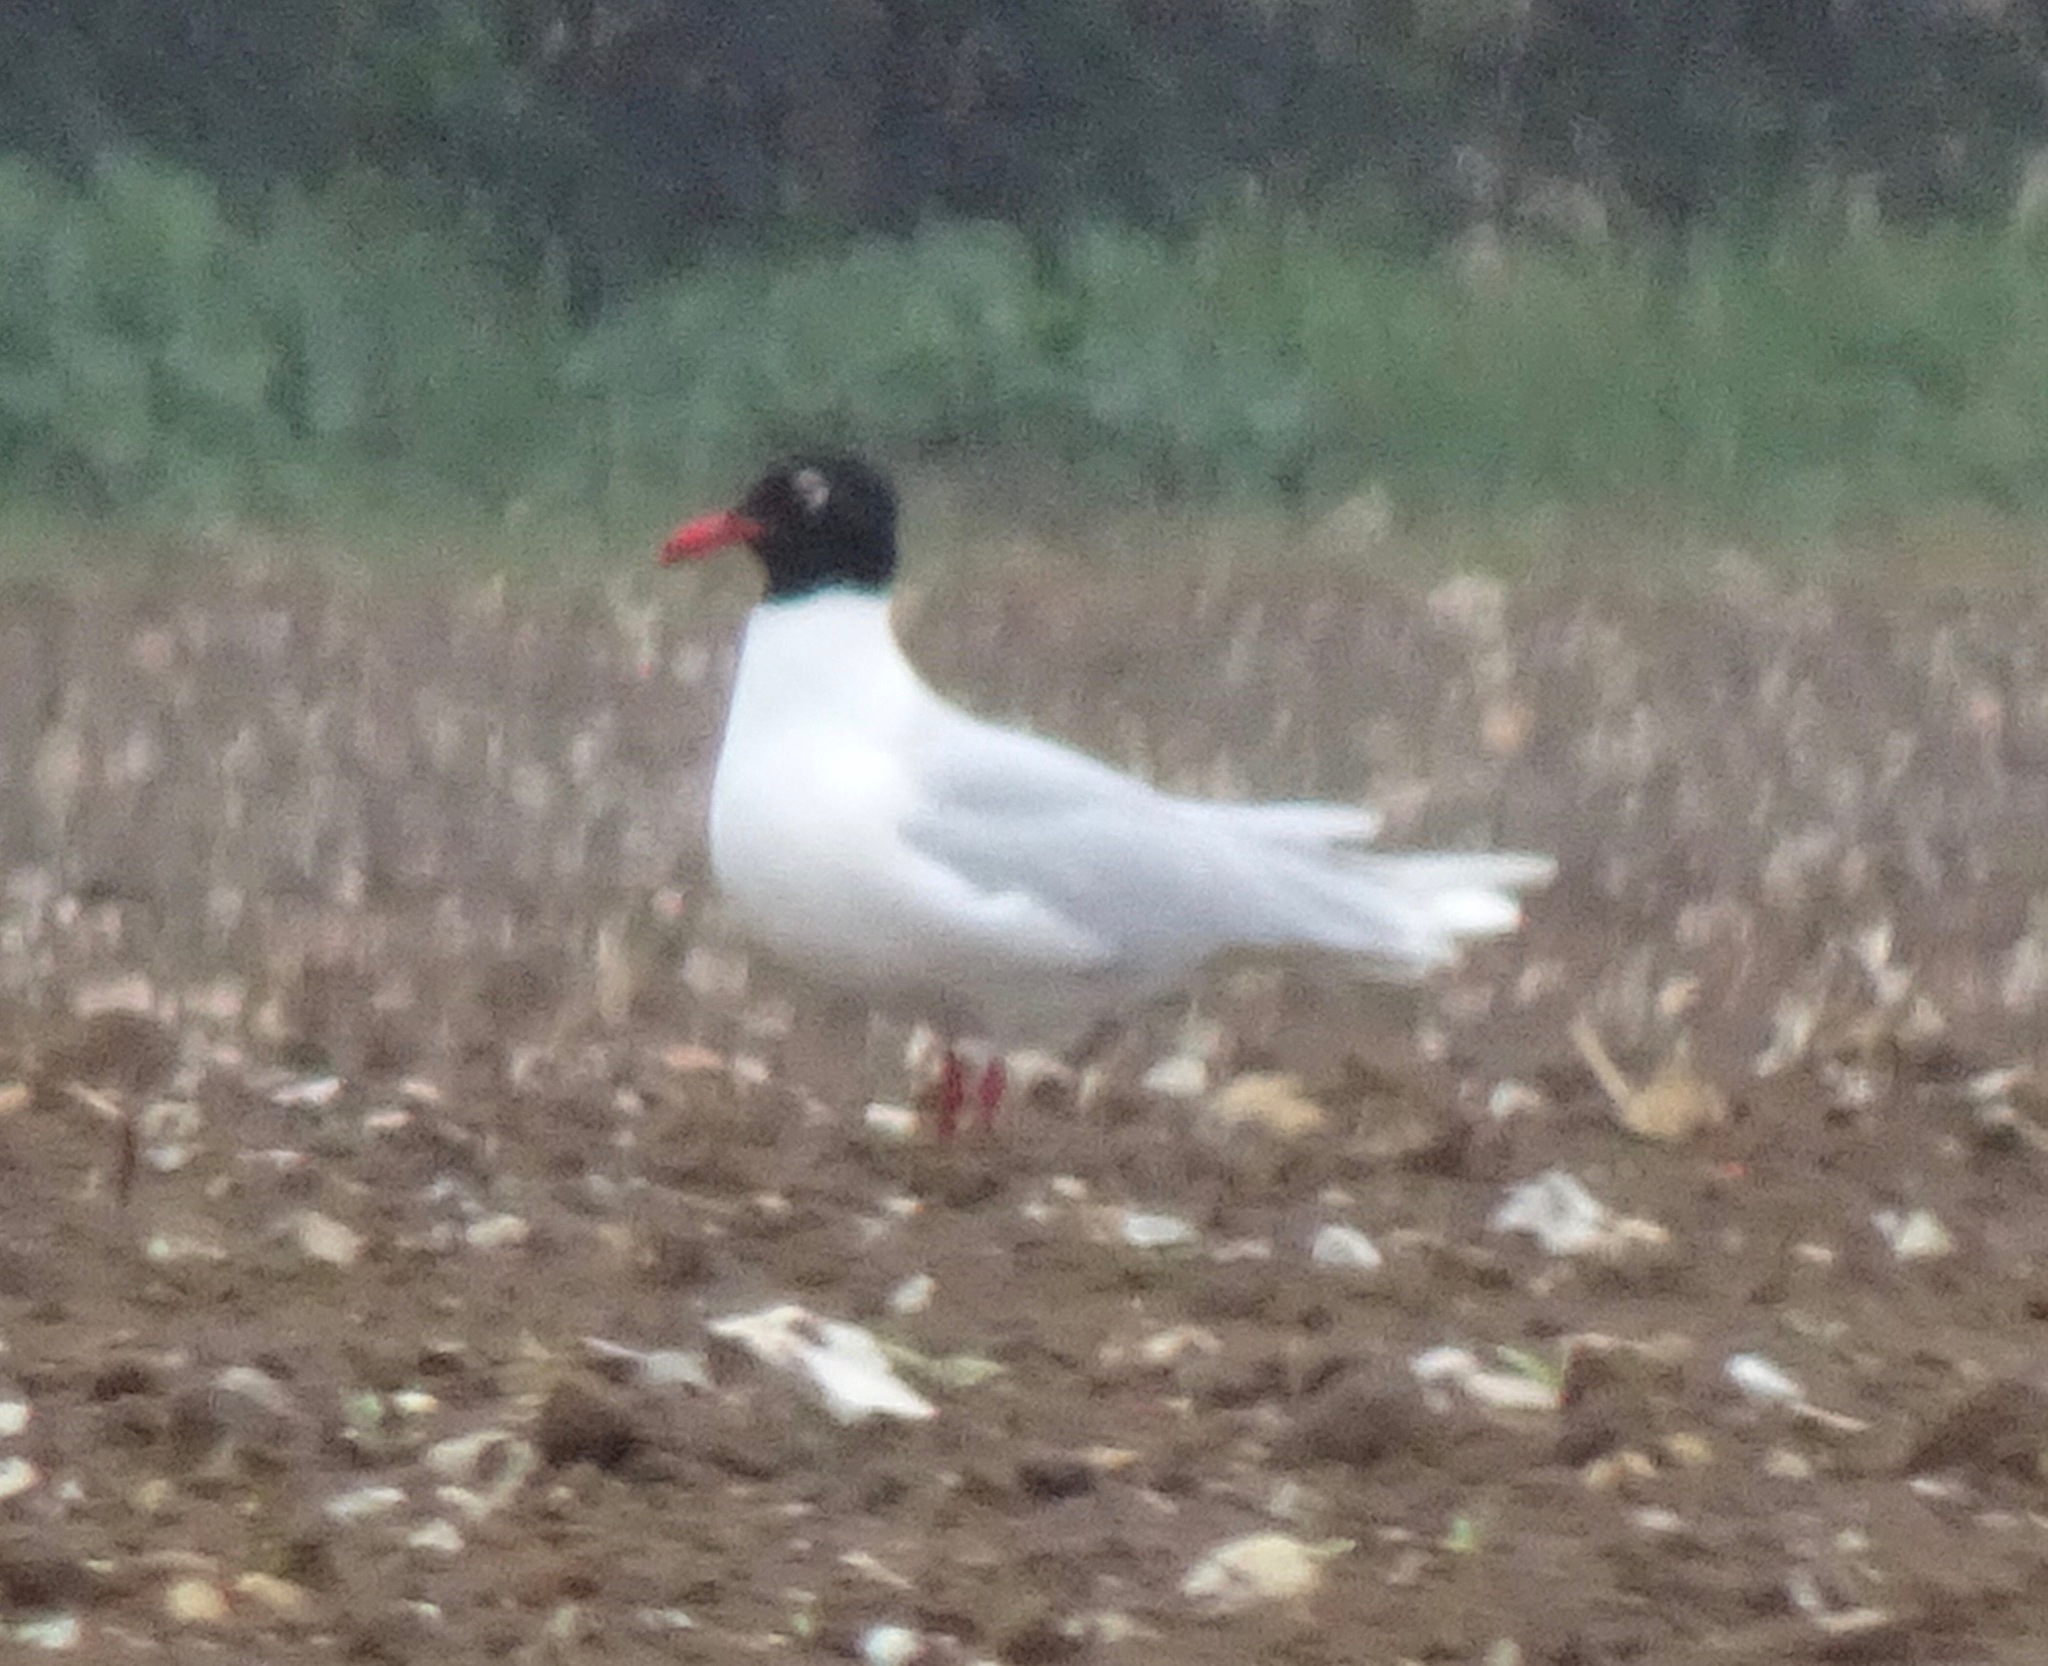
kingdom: Animalia
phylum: Chordata
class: Aves
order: Charadriiformes
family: Laridae
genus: Ichthyaetus
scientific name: Ichthyaetus melanocephalus
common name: Mediterranean gull
